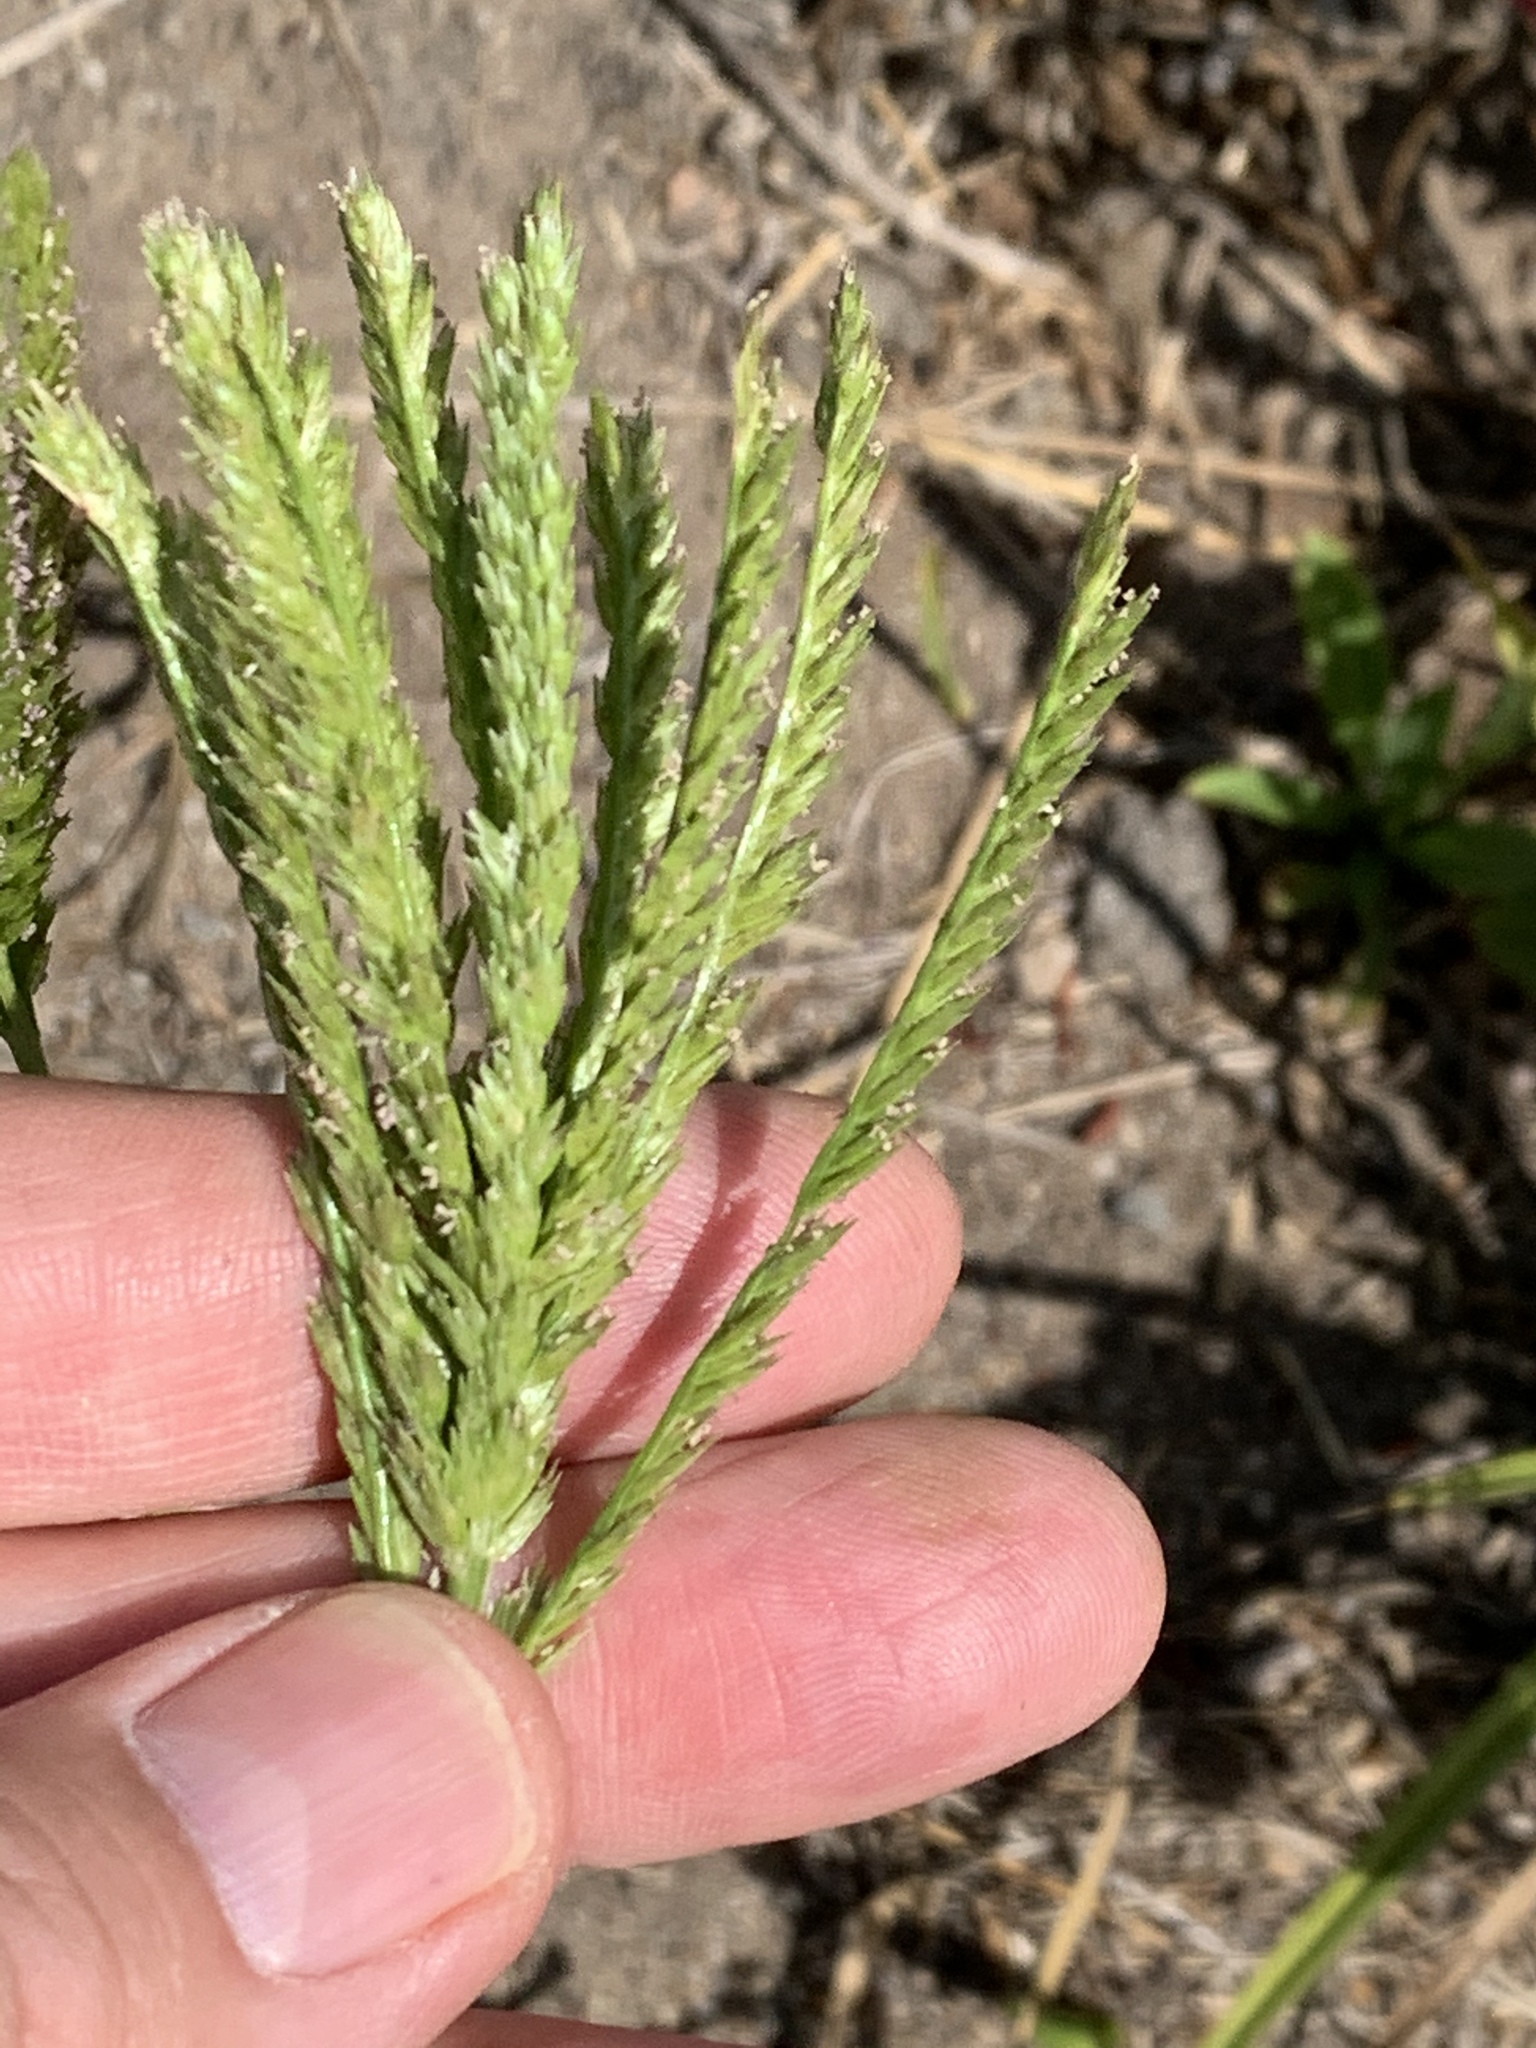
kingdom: Plantae
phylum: Tracheophyta
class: Liliopsida
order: Poales
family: Poaceae
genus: Eleusine
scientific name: Eleusine indica
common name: Yard-grass
